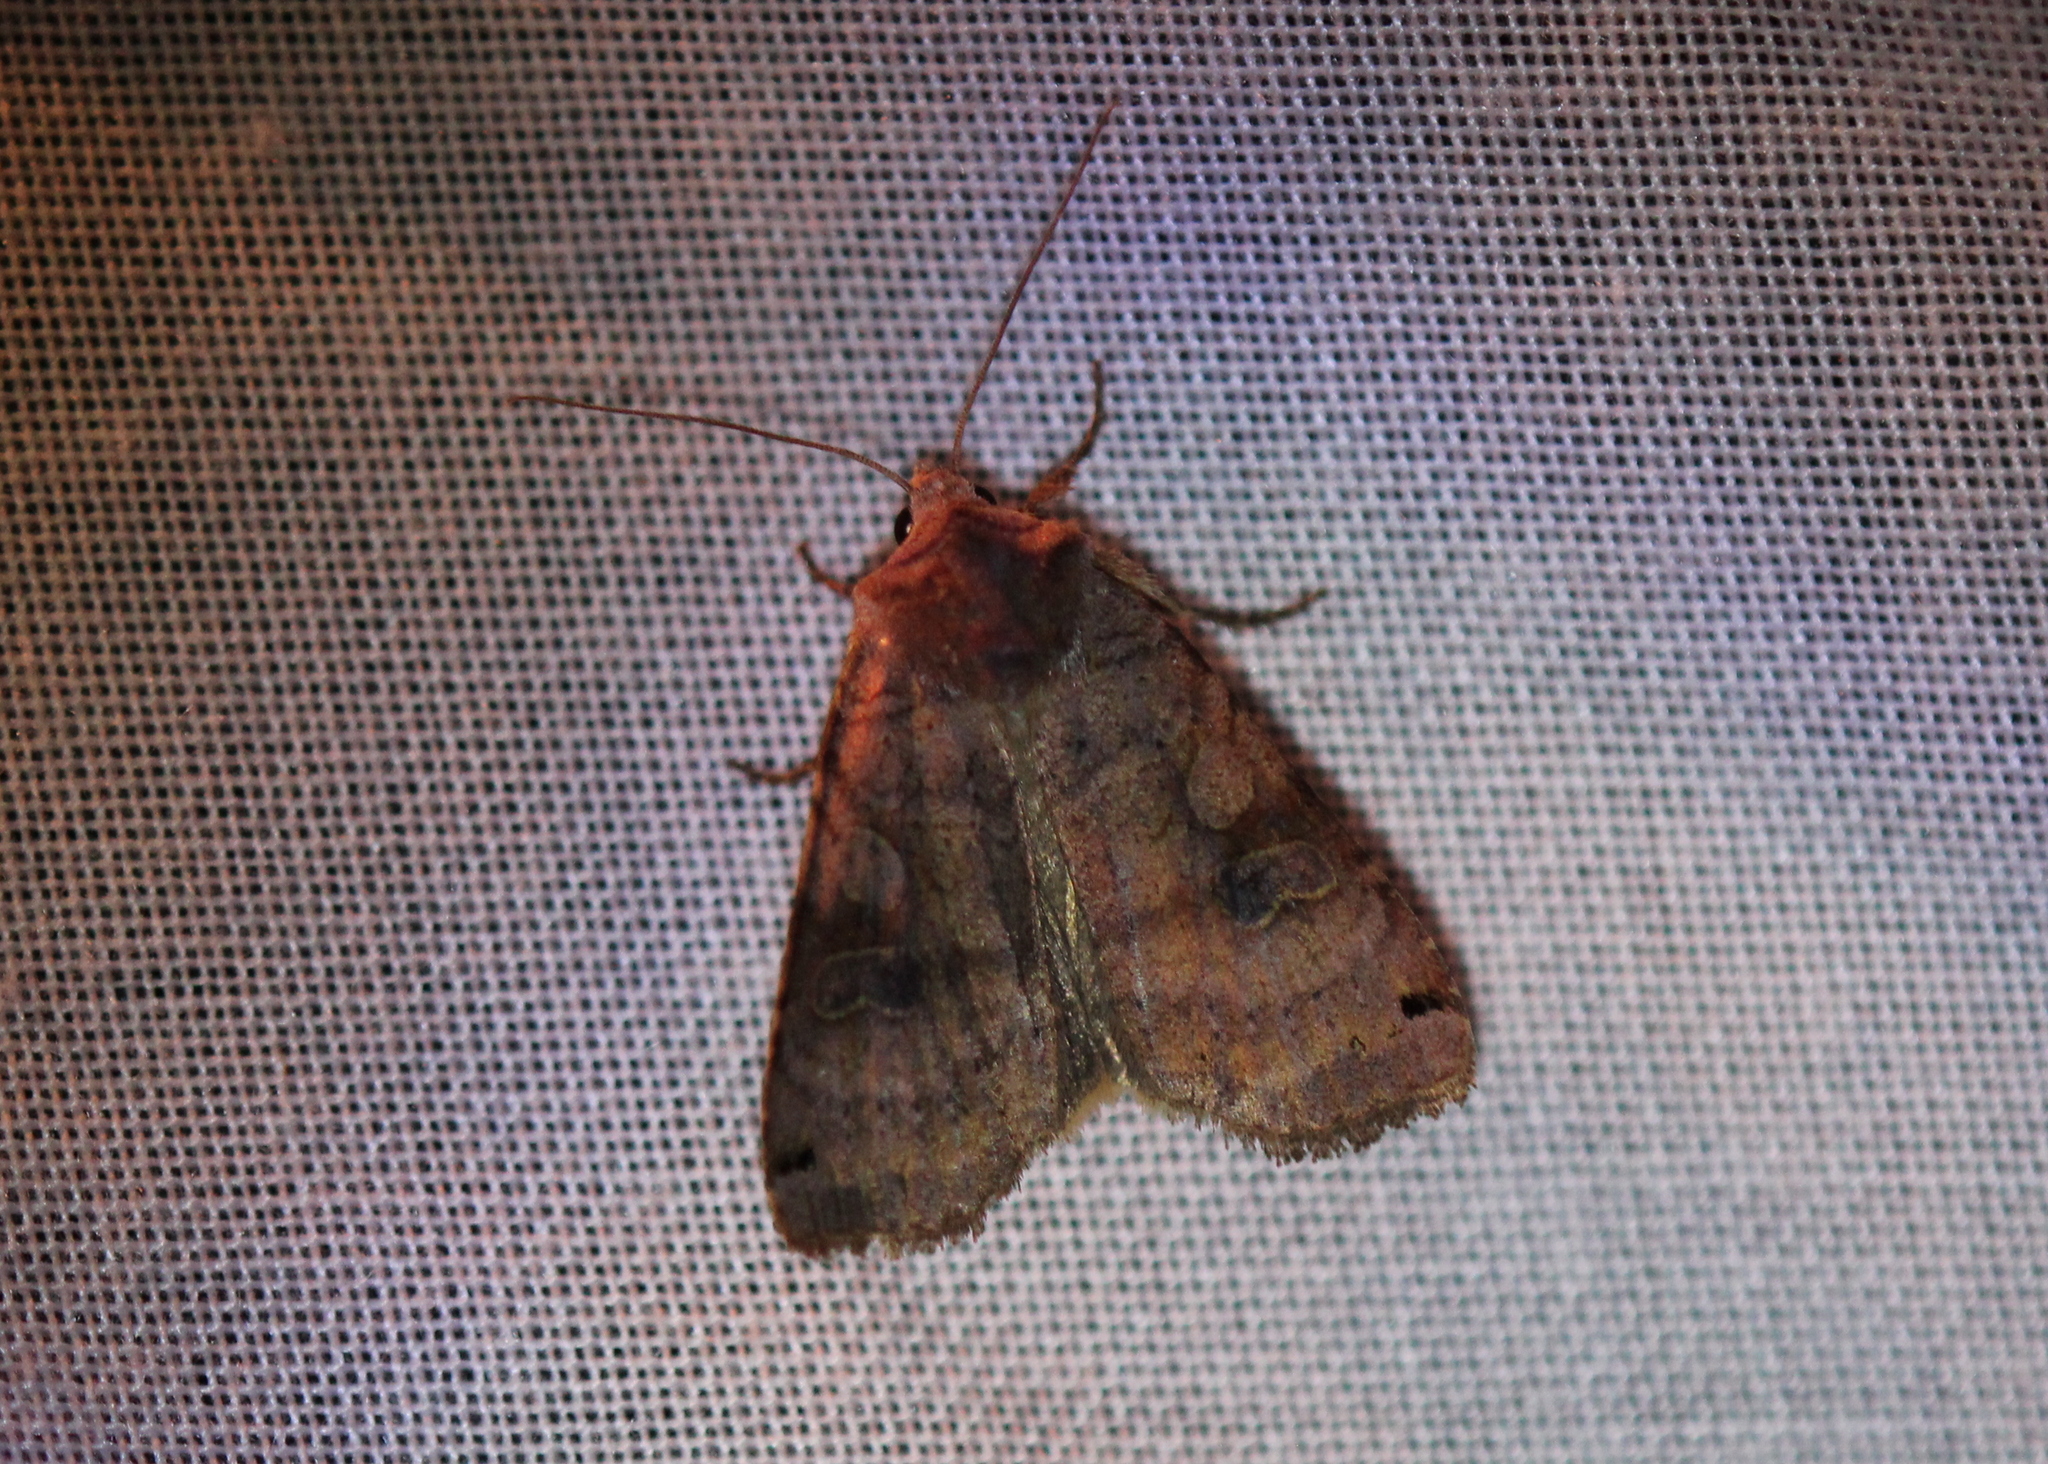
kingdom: Animalia
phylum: Arthropoda
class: Insecta
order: Lepidoptera
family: Noctuidae
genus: Xestia
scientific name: Xestia smithii
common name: Smith's dart
